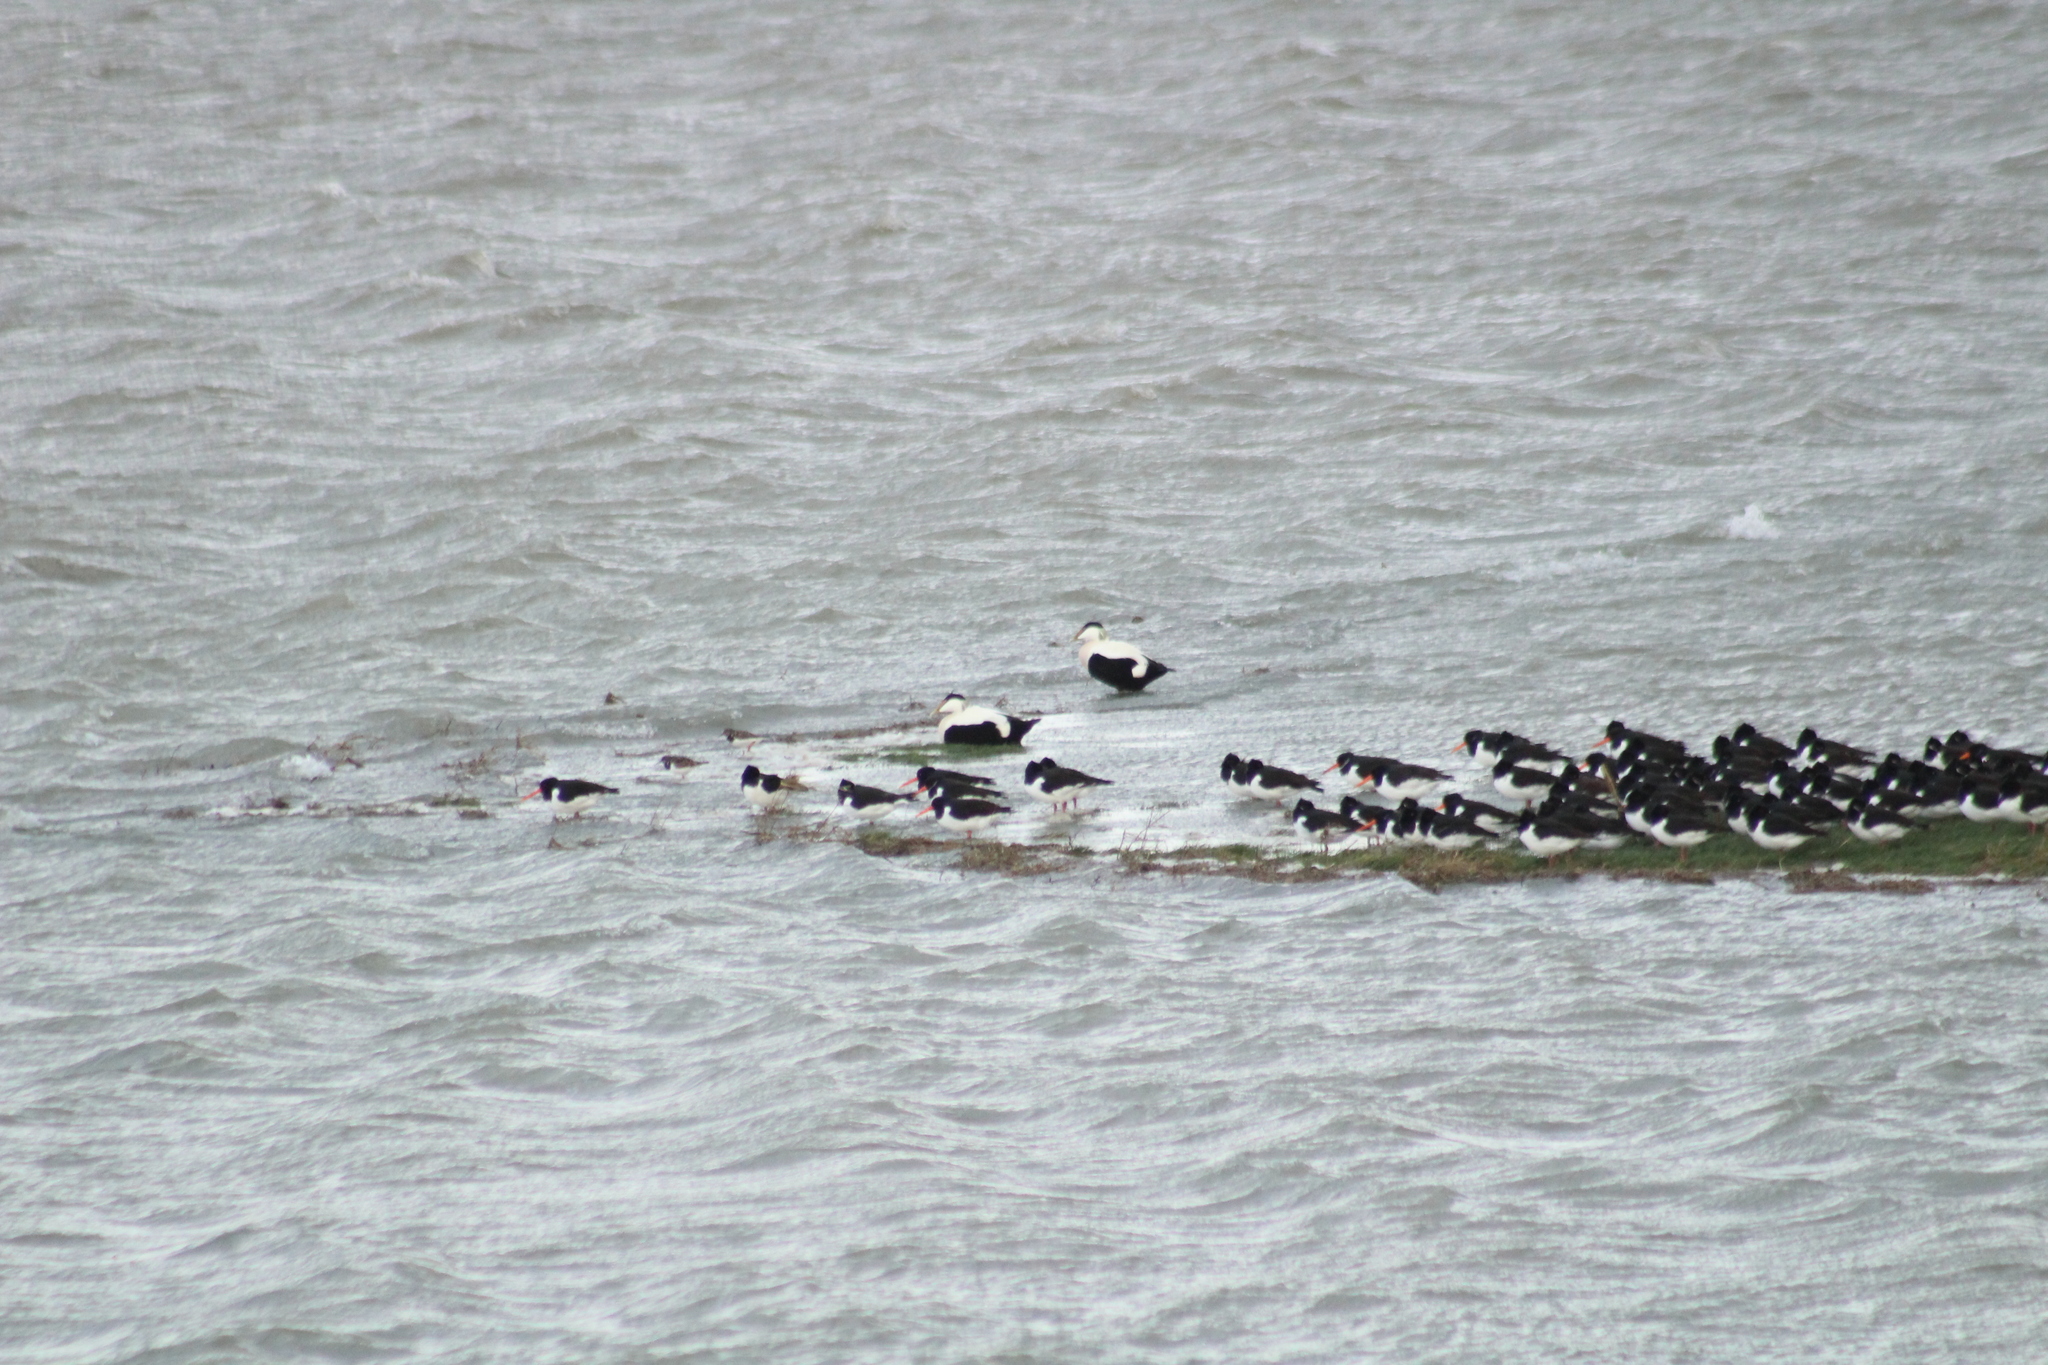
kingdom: Animalia
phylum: Chordata
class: Aves
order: Anseriformes
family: Anatidae
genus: Somateria
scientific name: Somateria mollissima
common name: Common eider
